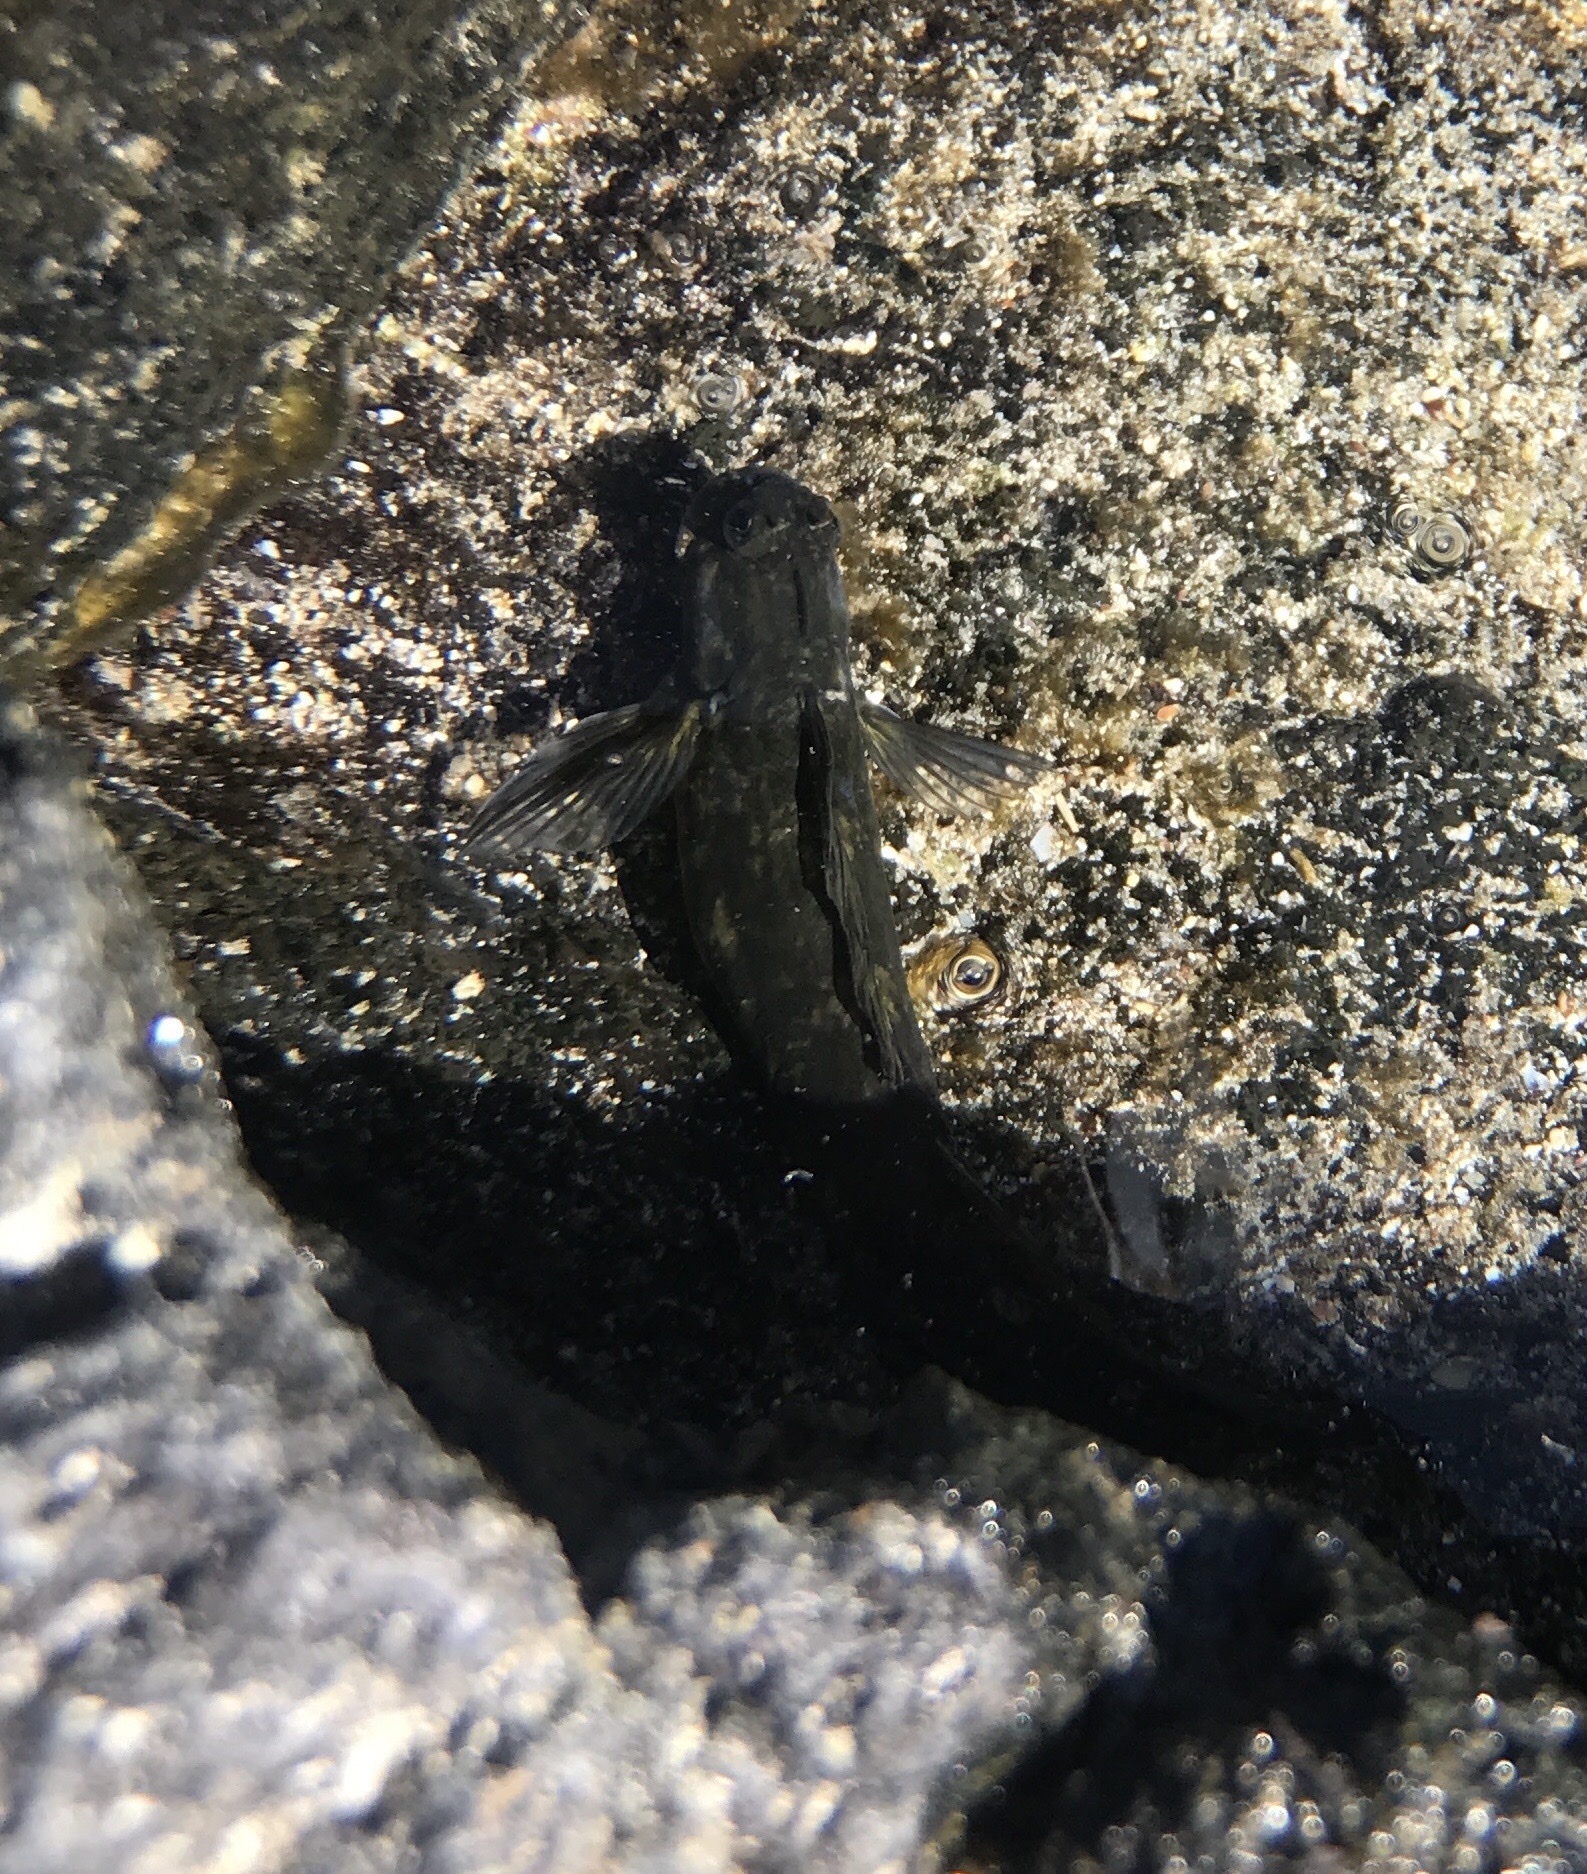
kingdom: Animalia
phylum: Chordata
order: Perciformes
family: Blenniidae
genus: Istiblennius
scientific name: Istiblennius zebra
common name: Zebra blenny
